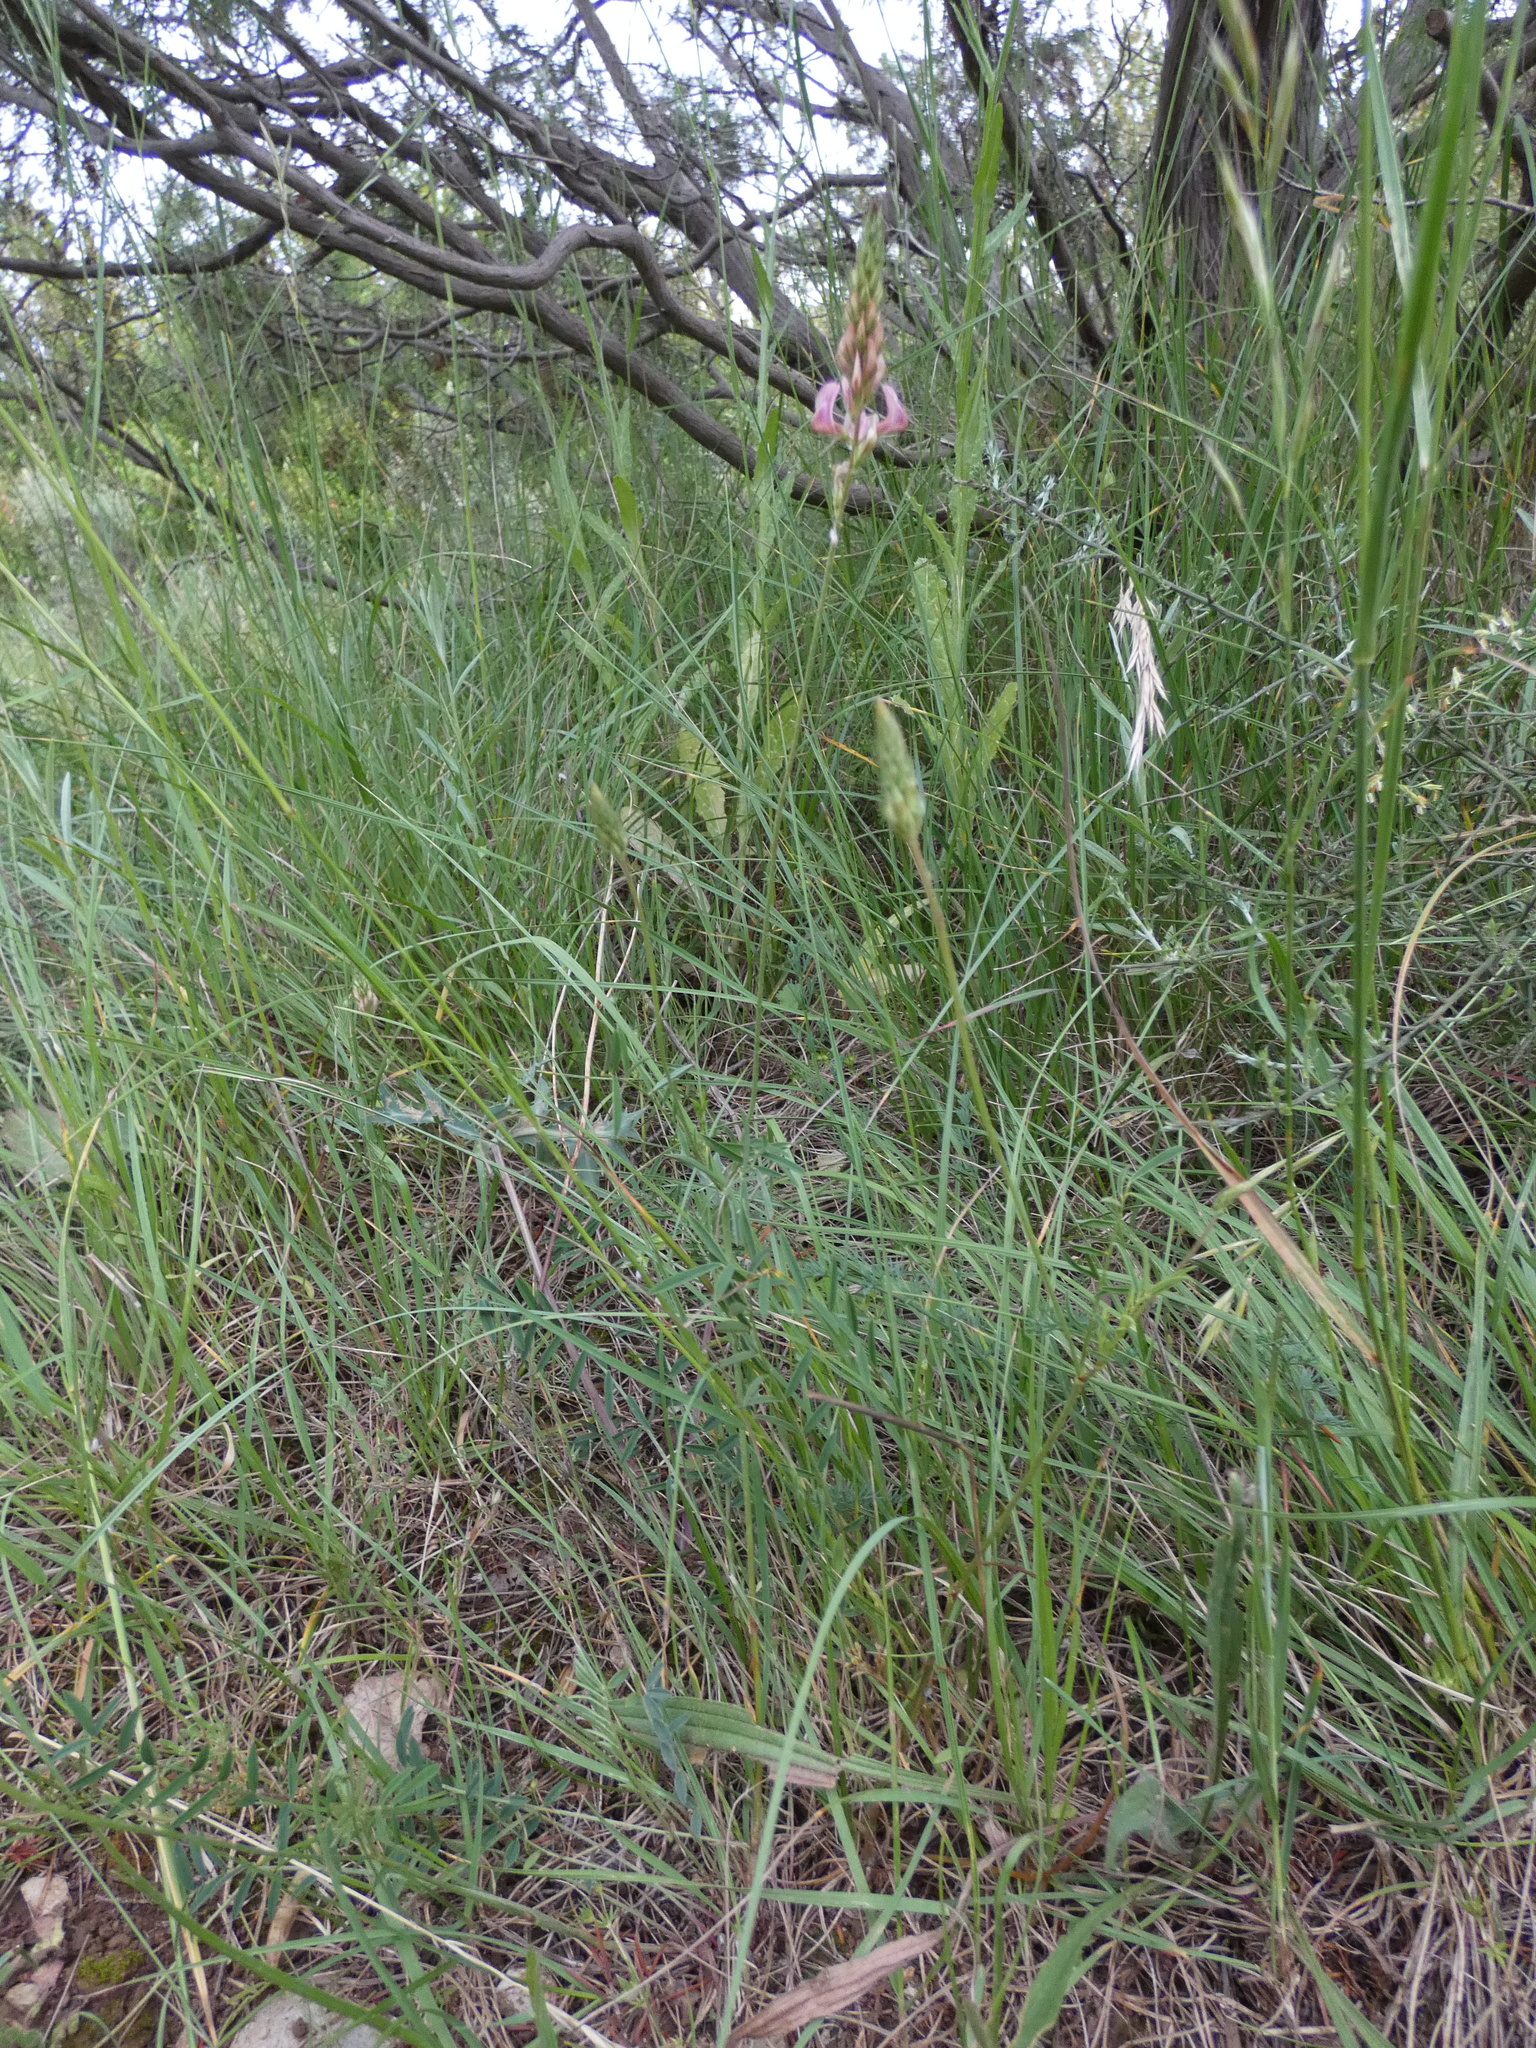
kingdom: Plantae
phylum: Tracheophyta
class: Magnoliopsida
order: Fabales
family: Fabaceae
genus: Onobrychis
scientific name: Onobrychis supina
